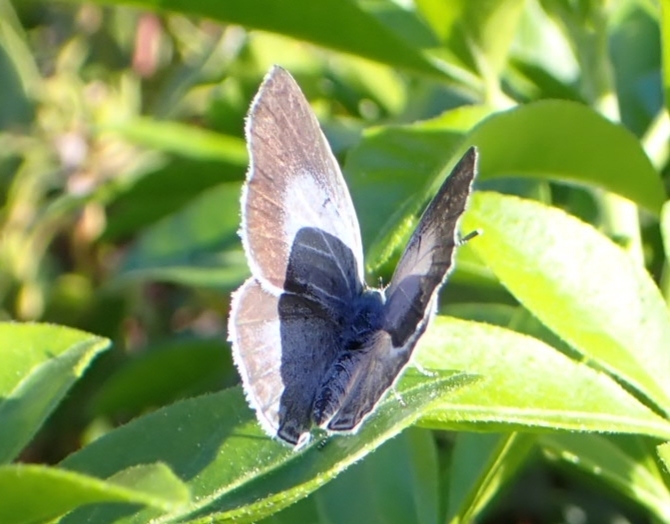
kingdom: Animalia
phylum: Arthropoda
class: Insecta
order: Lepidoptera
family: Lycaenidae
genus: Celastrina
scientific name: Celastrina argiolus
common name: Holly blue
